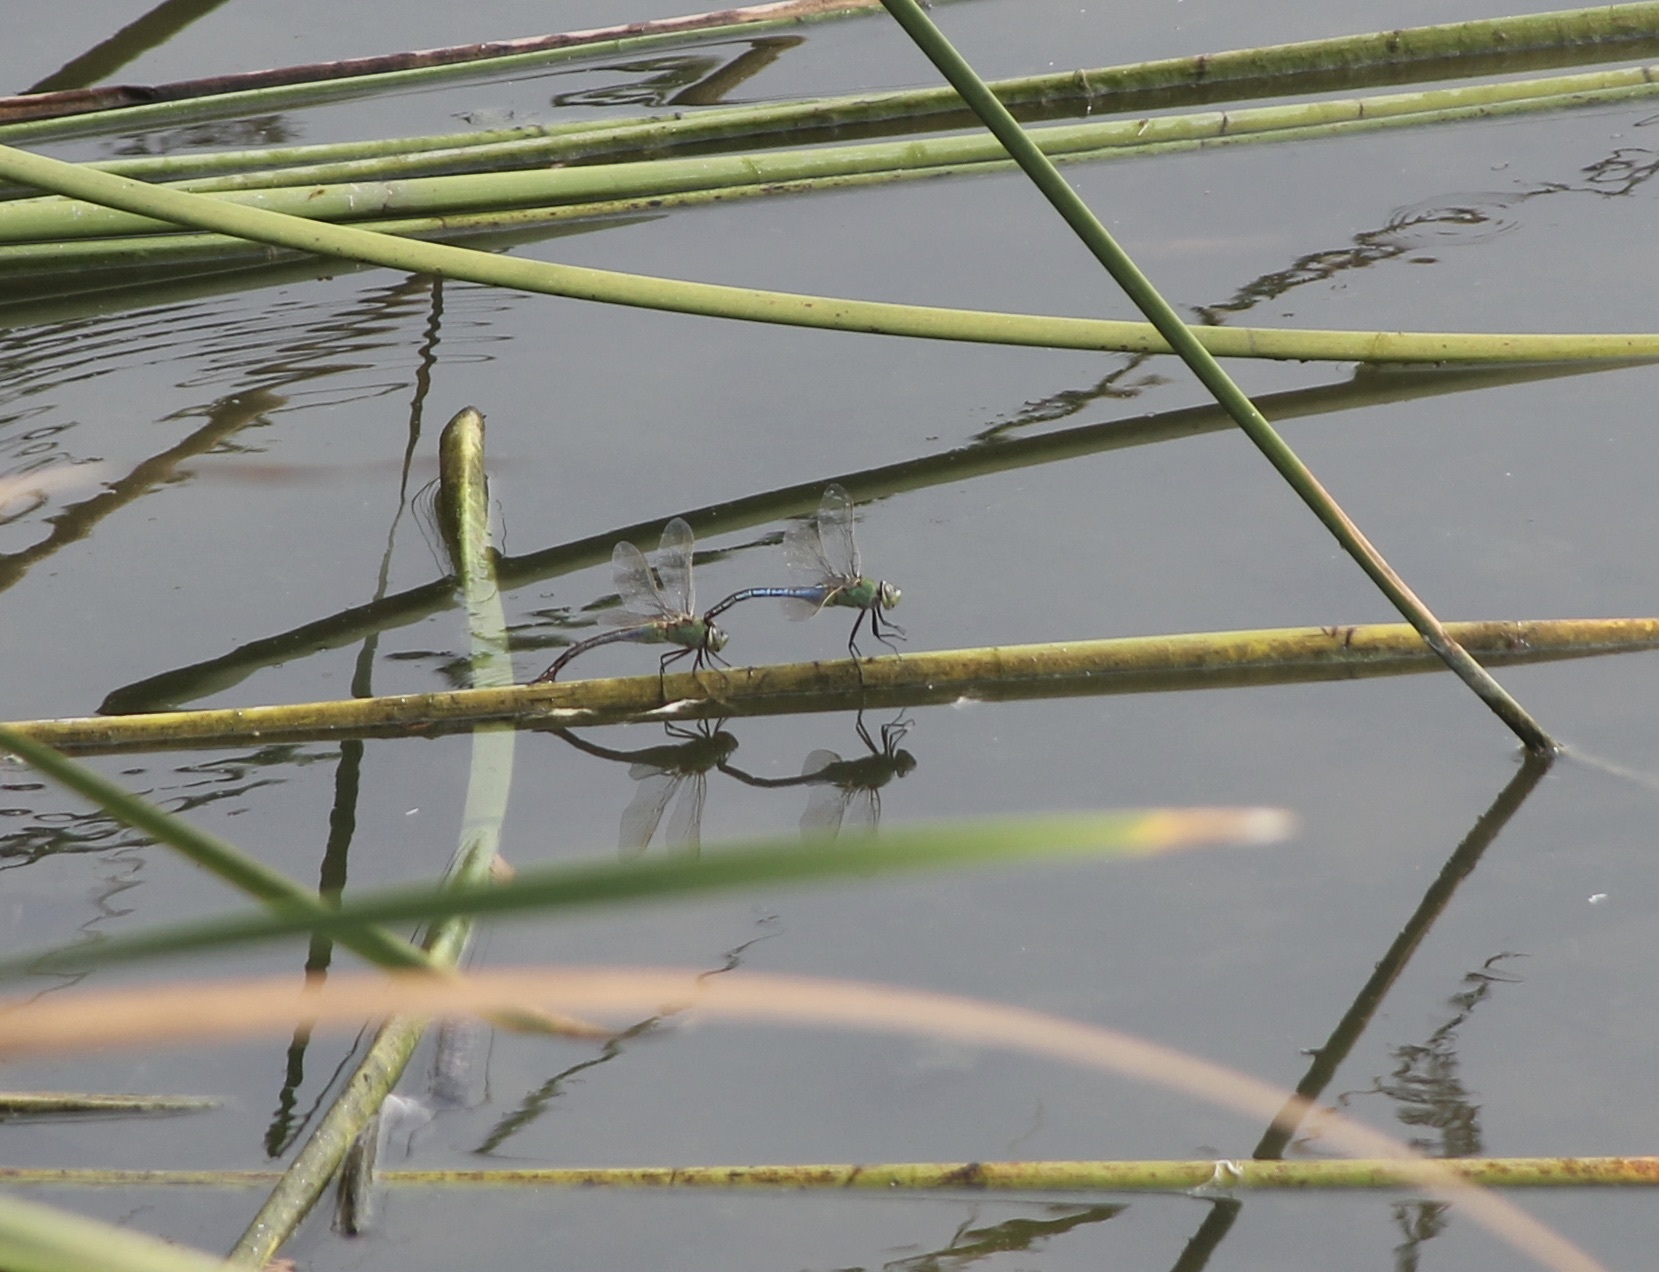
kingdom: Animalia
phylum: Arthropoda
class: Insecta
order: Odonata
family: Aeshnidae
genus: Anax
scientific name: Anax junius
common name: Common green darner
